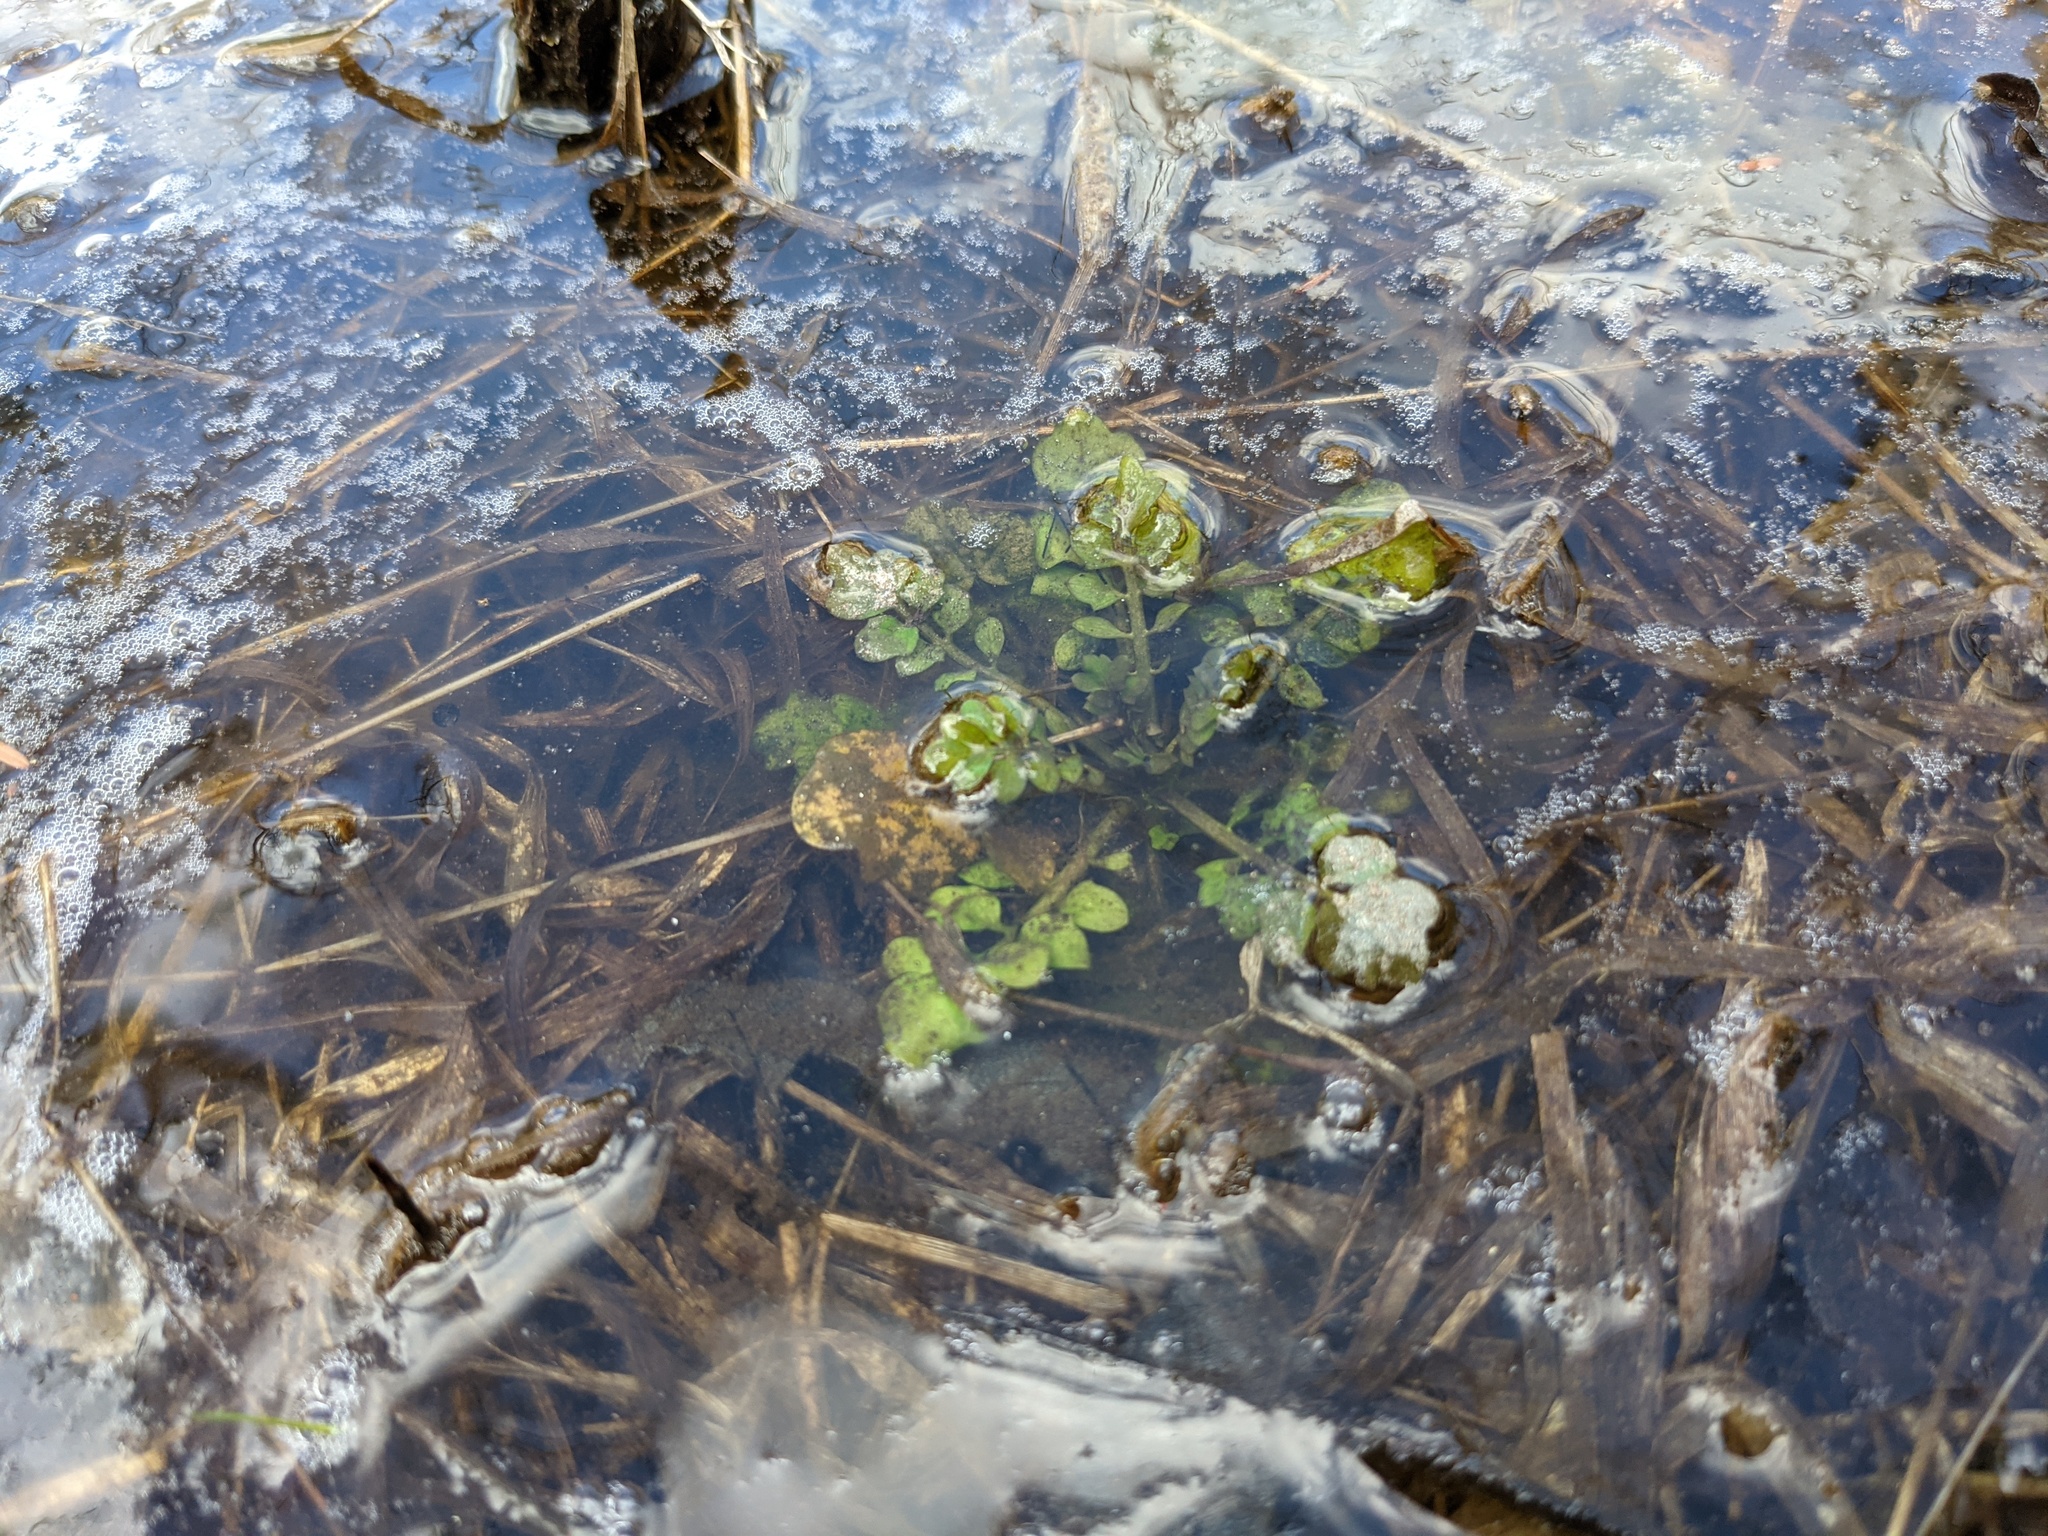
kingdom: Plantae
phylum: Tracheophyta
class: Magnoliopsida
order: Brassicales
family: Brassicaceae
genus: Cardamine
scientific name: Cardamine pensylvanica
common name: Pennsylvania bittercress
